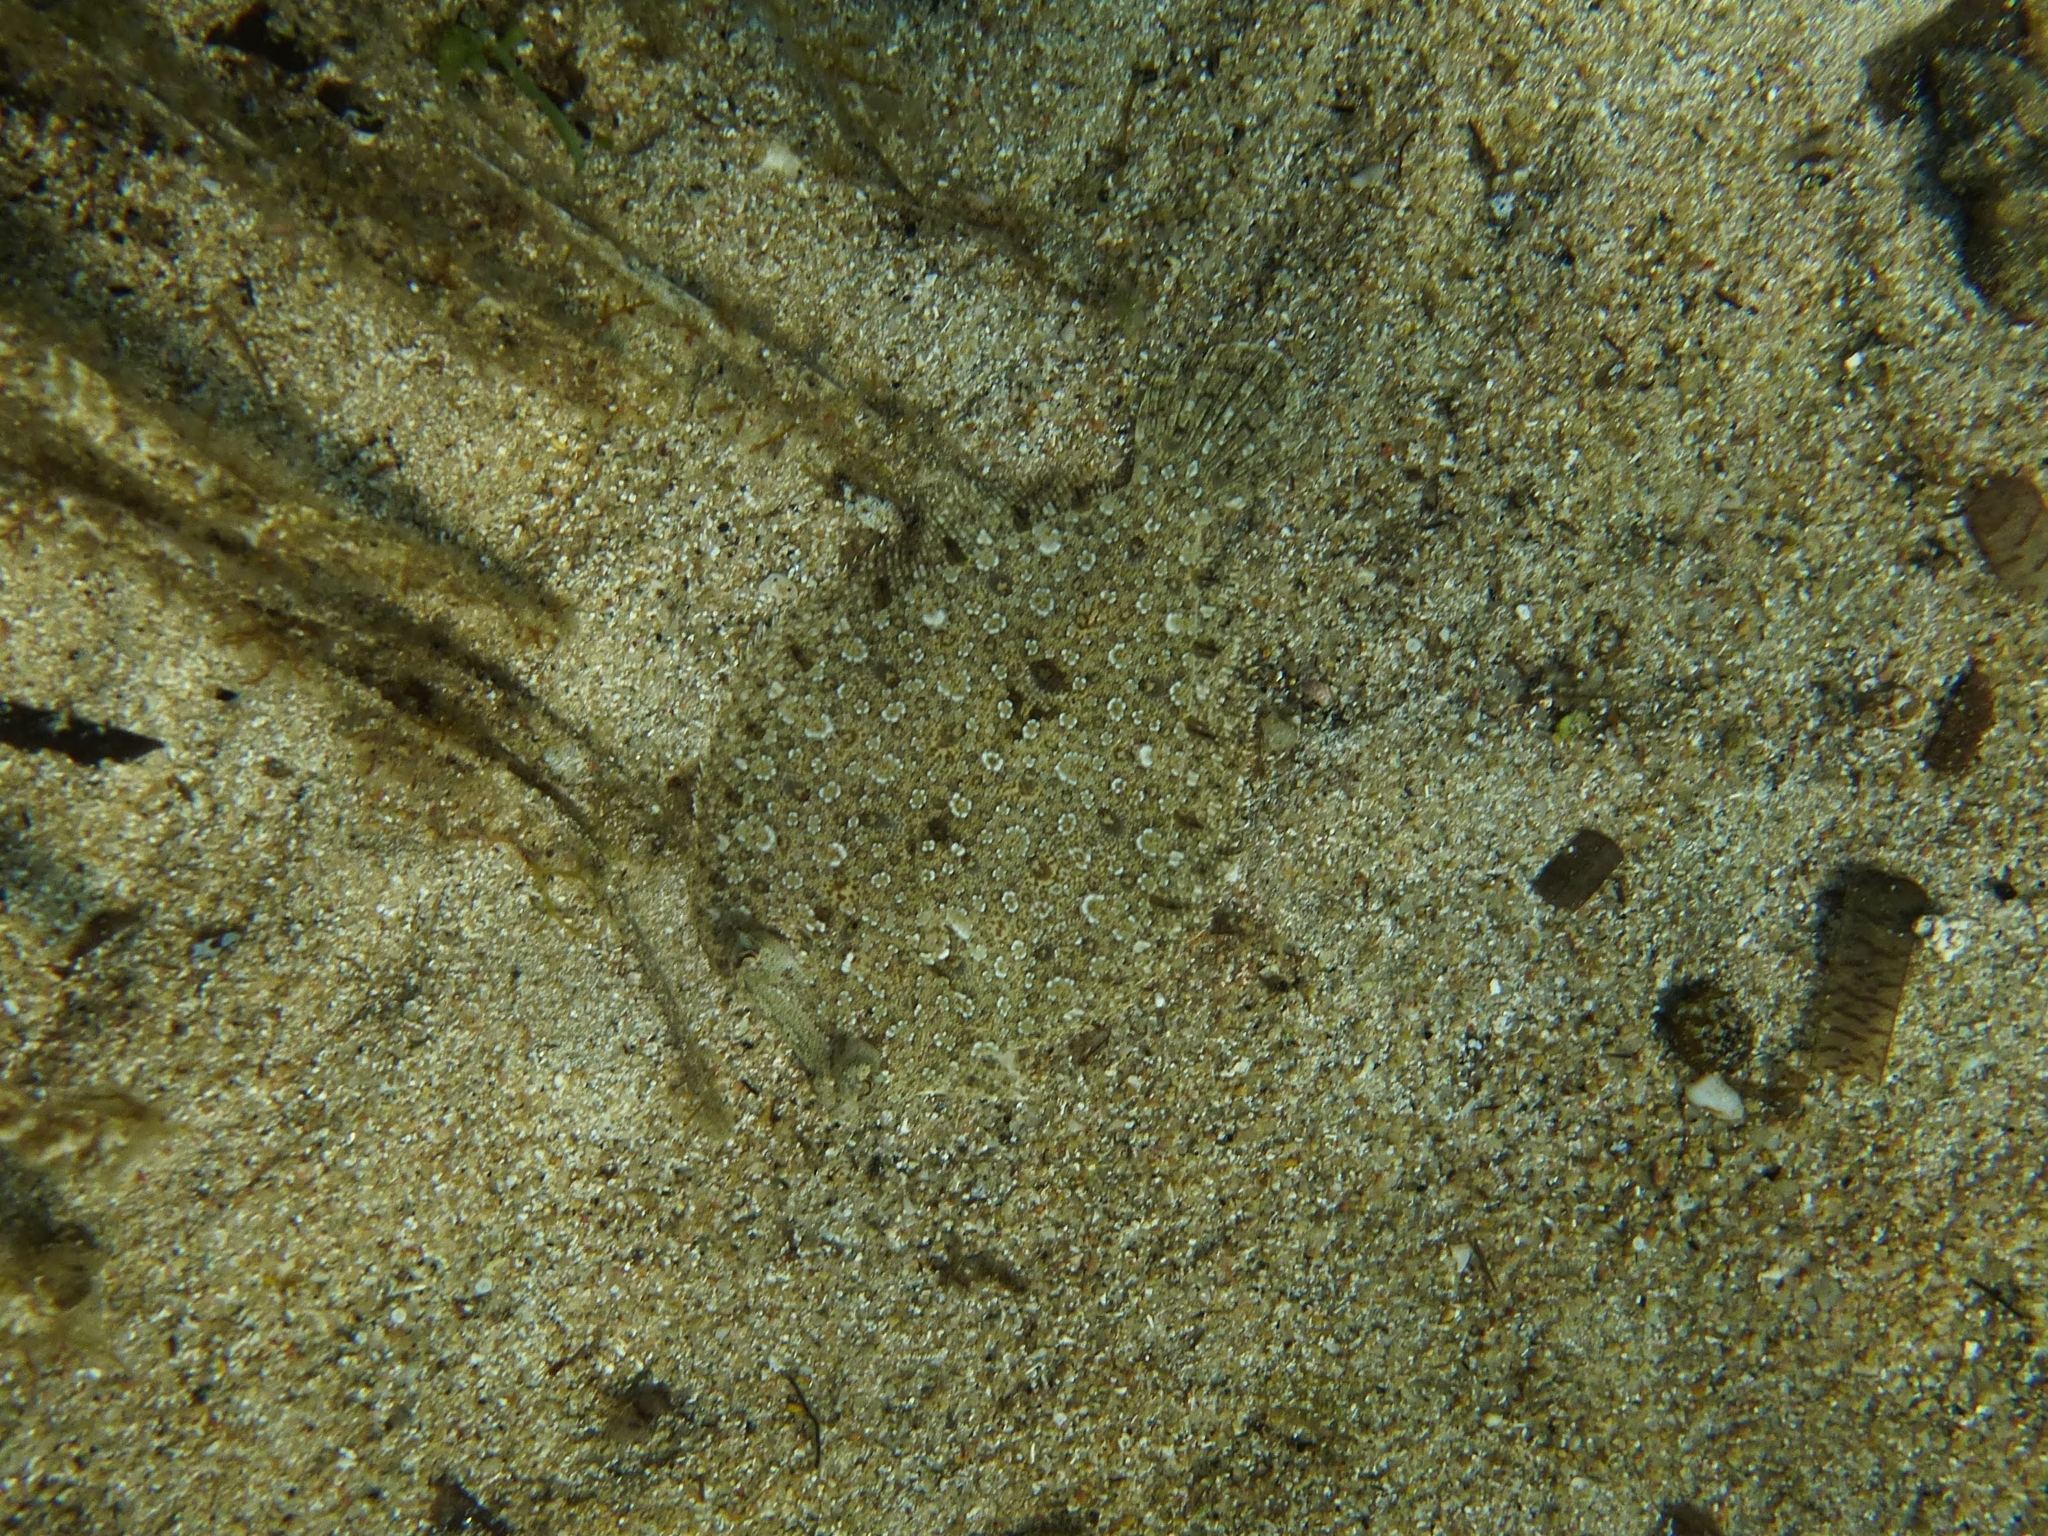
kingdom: Animalia
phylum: Chordata
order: Pleuronectiformes
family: Bothidae
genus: Bothus
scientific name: Bothus podas
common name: Wide-eyed flounder
